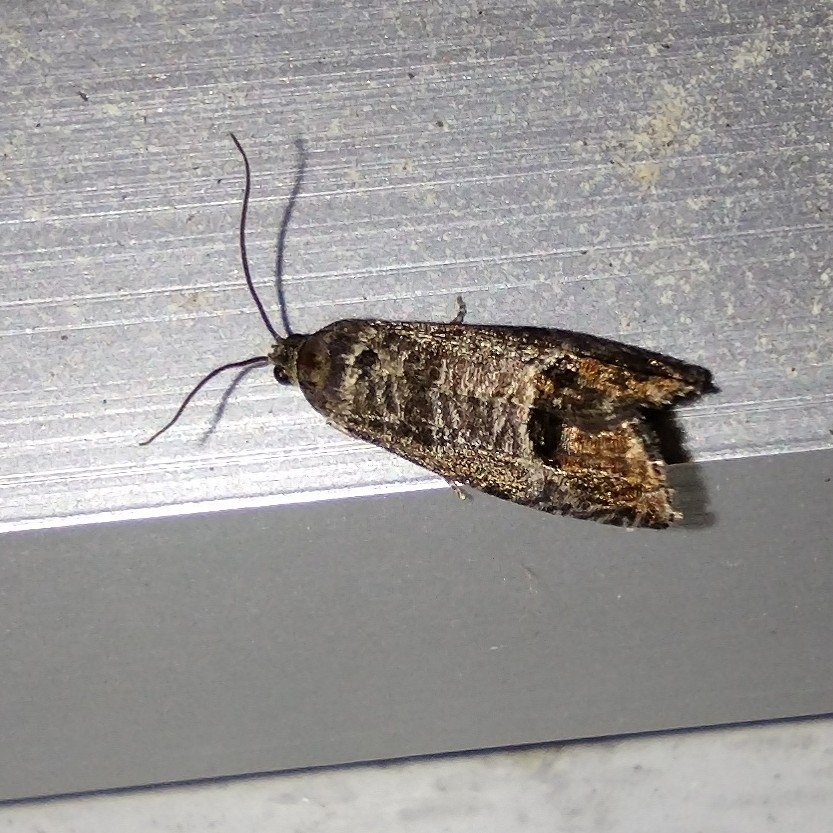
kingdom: Animalia
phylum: Arthropoda
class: Insecta
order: Lepidoptera
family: Tortricidae
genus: Cydia
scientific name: Cydia pomonella
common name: Codling moth
